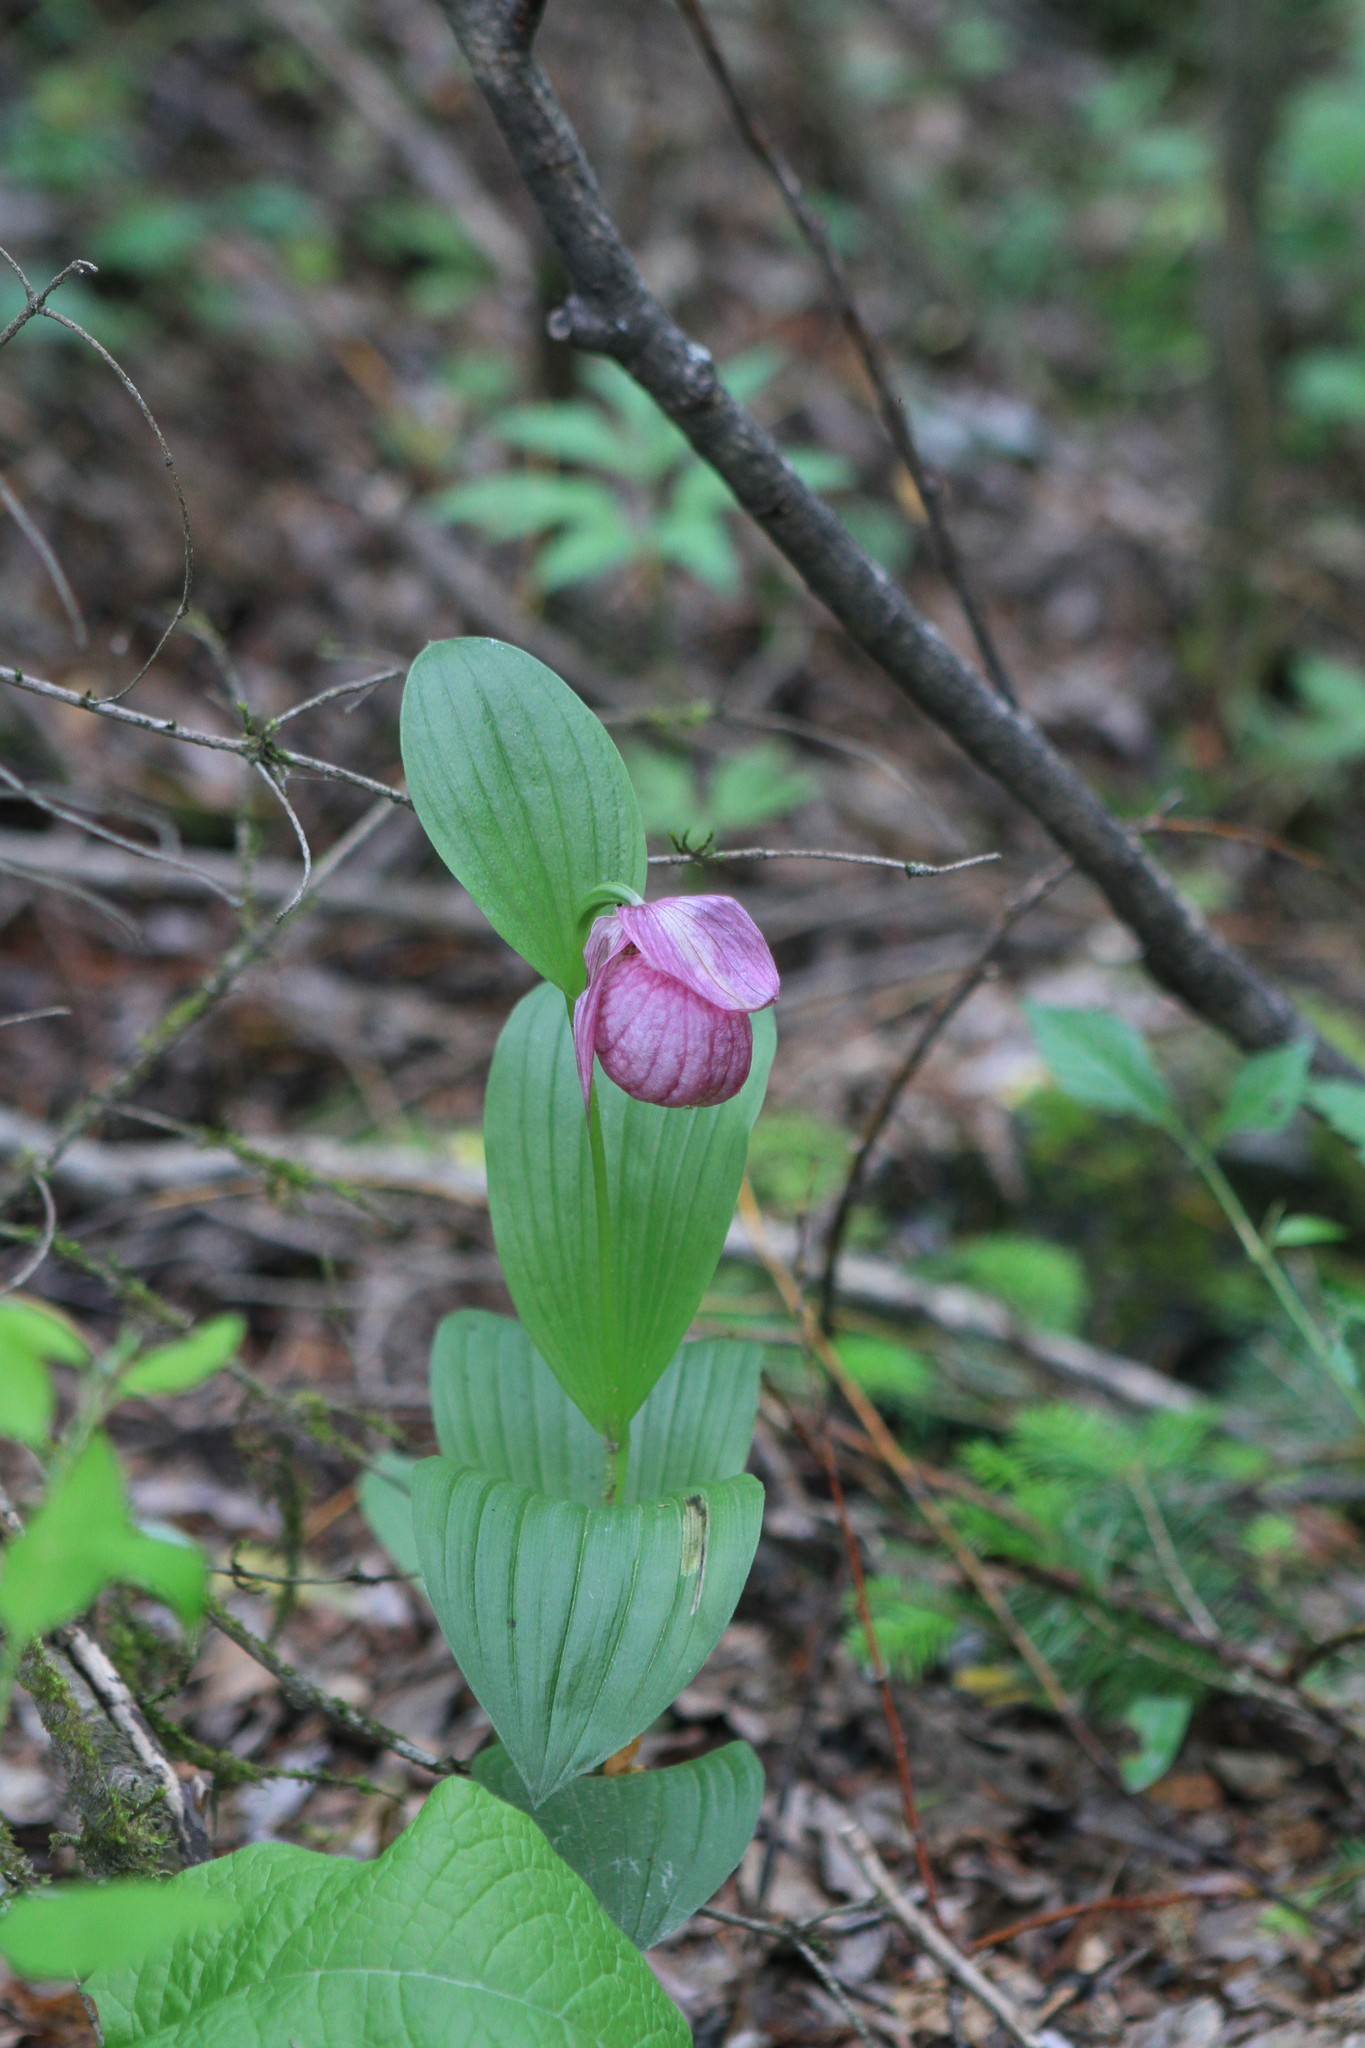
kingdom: Plantae
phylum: Tracheophyta
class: Liliopsida
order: Asparagales
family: Orchidaceae
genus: Cypripedium
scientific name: Cypripedium macranthos
